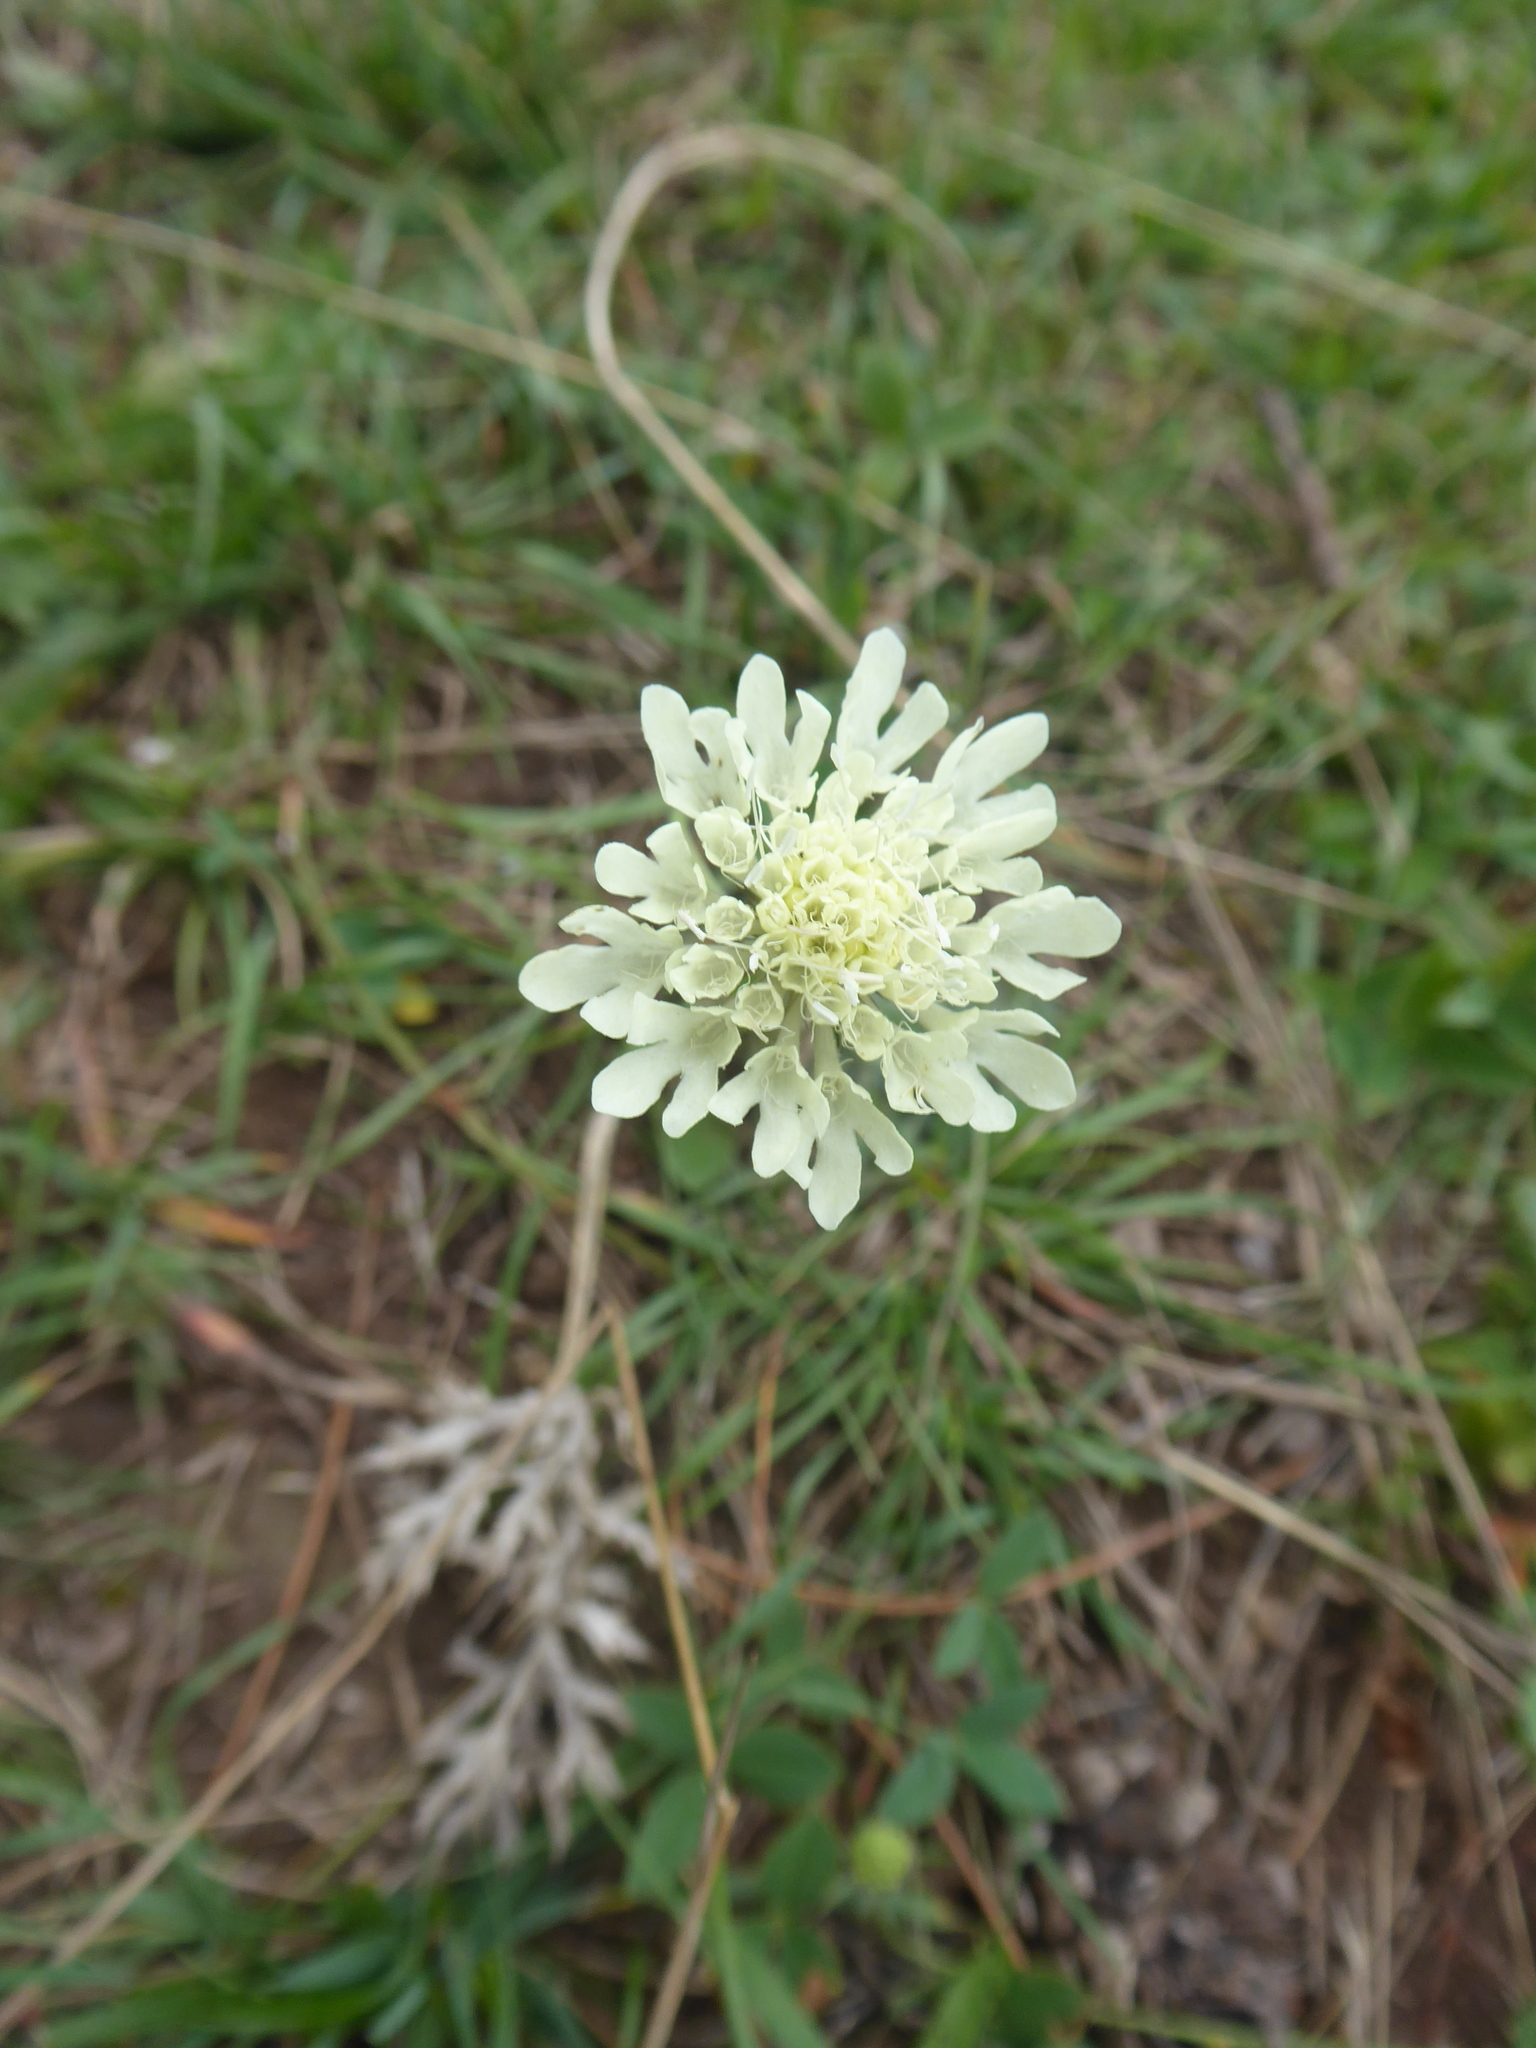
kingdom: Plantae
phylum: Tracheophyta
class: Magnoliopsida
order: Dipsacales
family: Caprifoliaceae
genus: Scabiosa
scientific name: Scabiosa ochroleuca
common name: Cream pincushions
